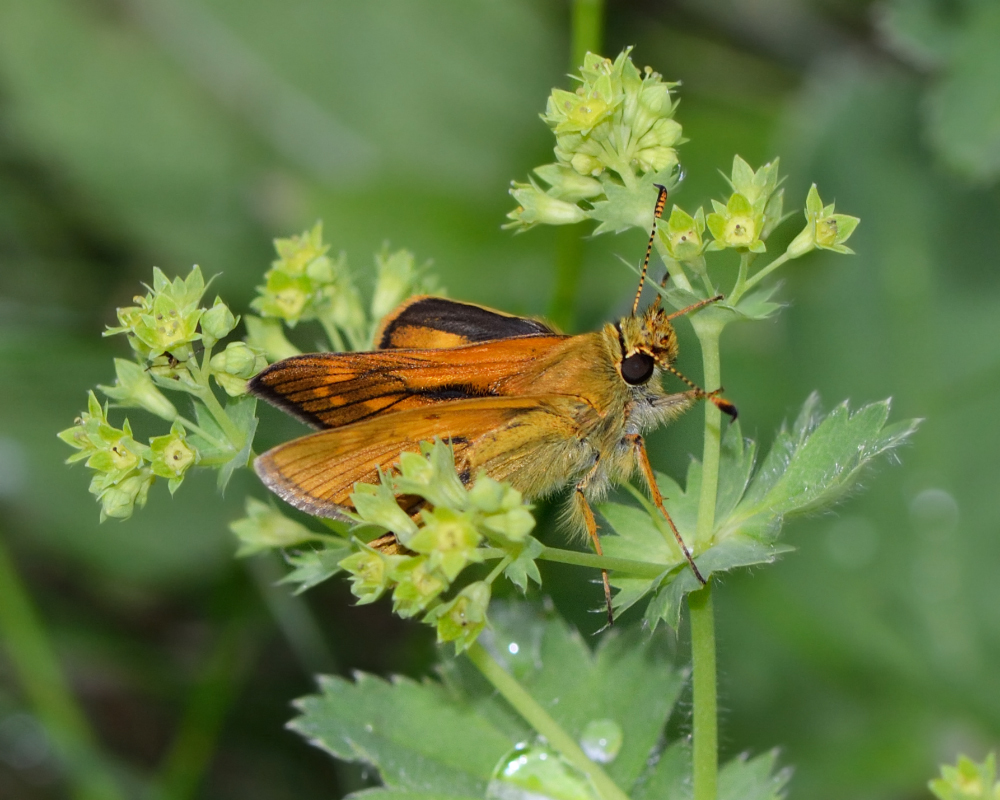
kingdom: Animalia
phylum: Arthropoda
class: Insecta
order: Lepidoptera
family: Hesperiidae
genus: Ochlodes
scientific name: Ochlodes venata
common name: Large skipper
